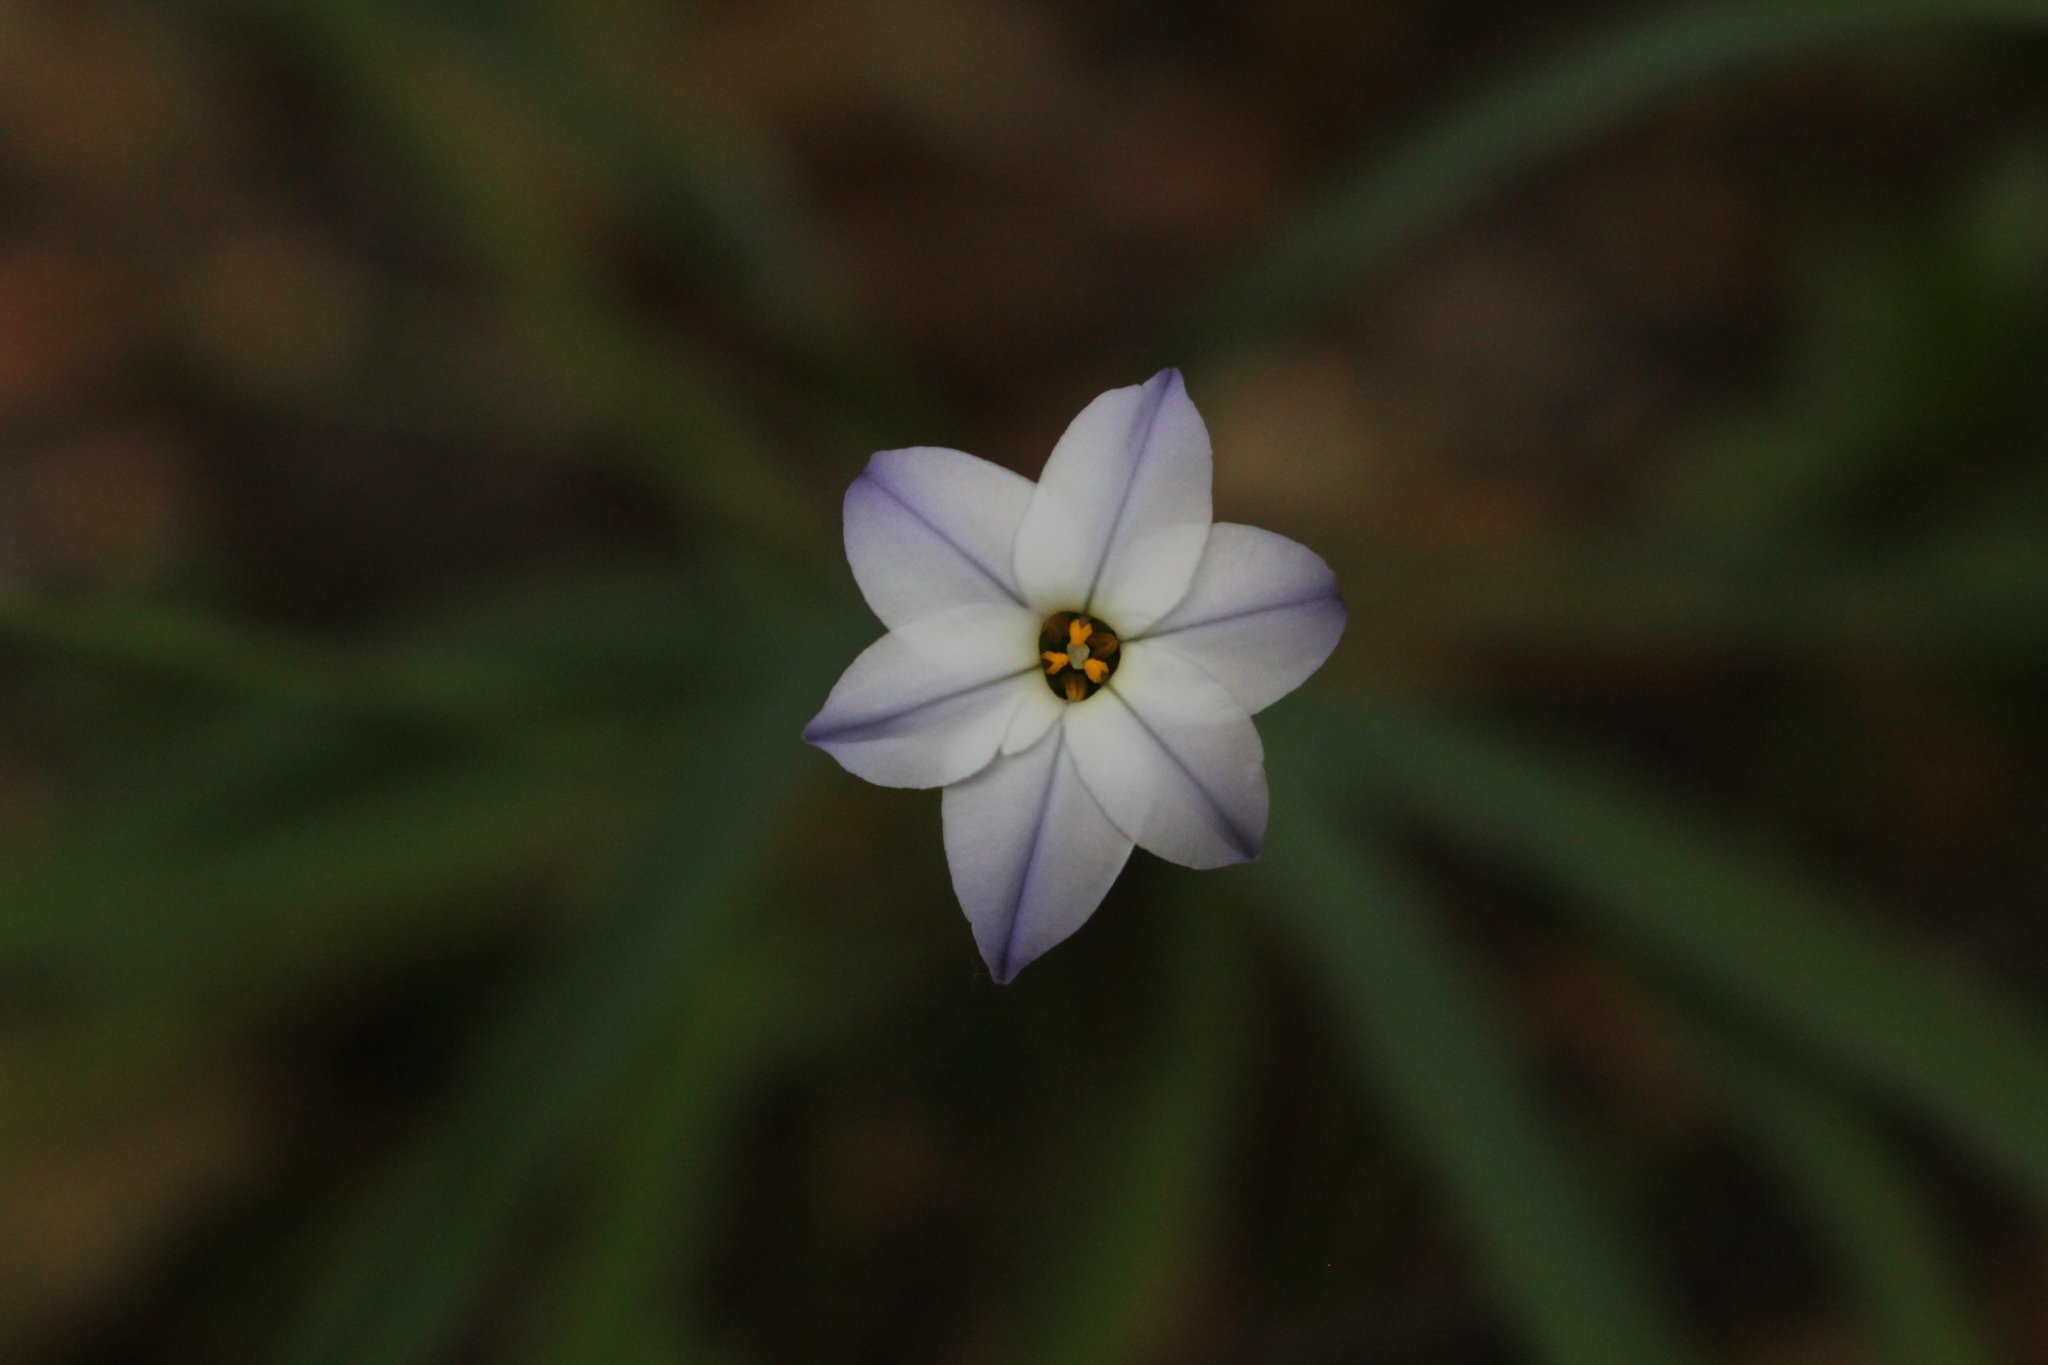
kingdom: Plantae
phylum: Tracheophyta
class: Liliopsida
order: Asparagales
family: Amaryllidaceae
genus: Ipheion
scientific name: Ipheion uniflorum
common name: Spring starflower
